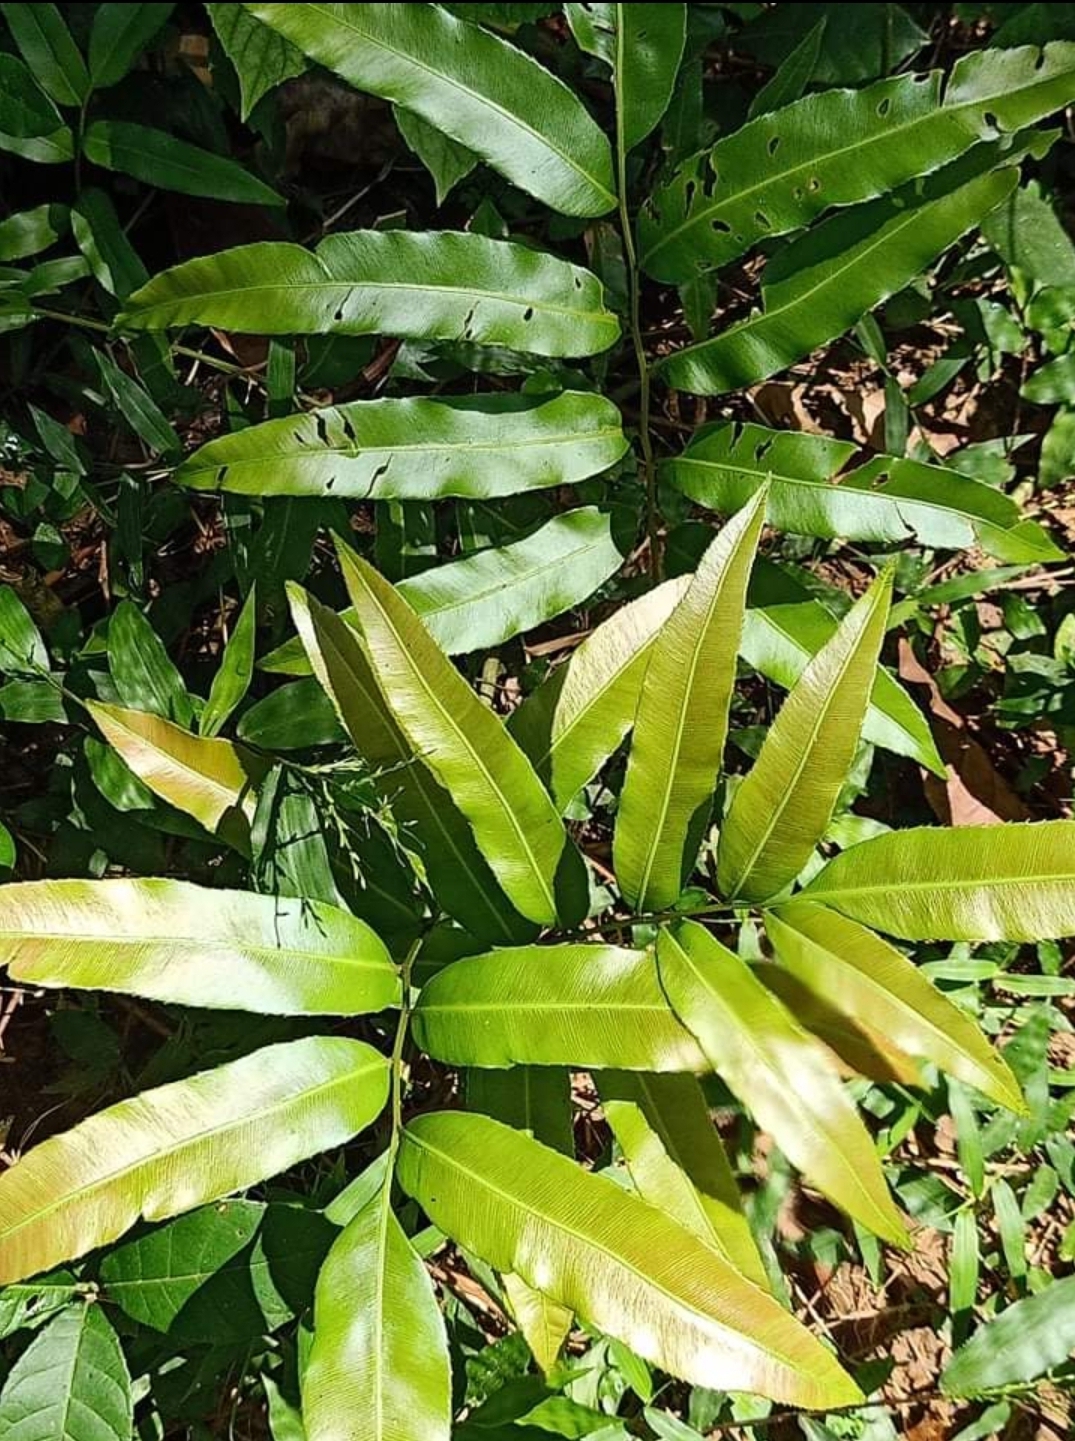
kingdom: Plantae
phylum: Tracheophyta
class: Polypodiopsida
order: Polypodiales
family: Pteridaceae
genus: Acrostichum
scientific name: Acrostichum aureum
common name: Leather fern
